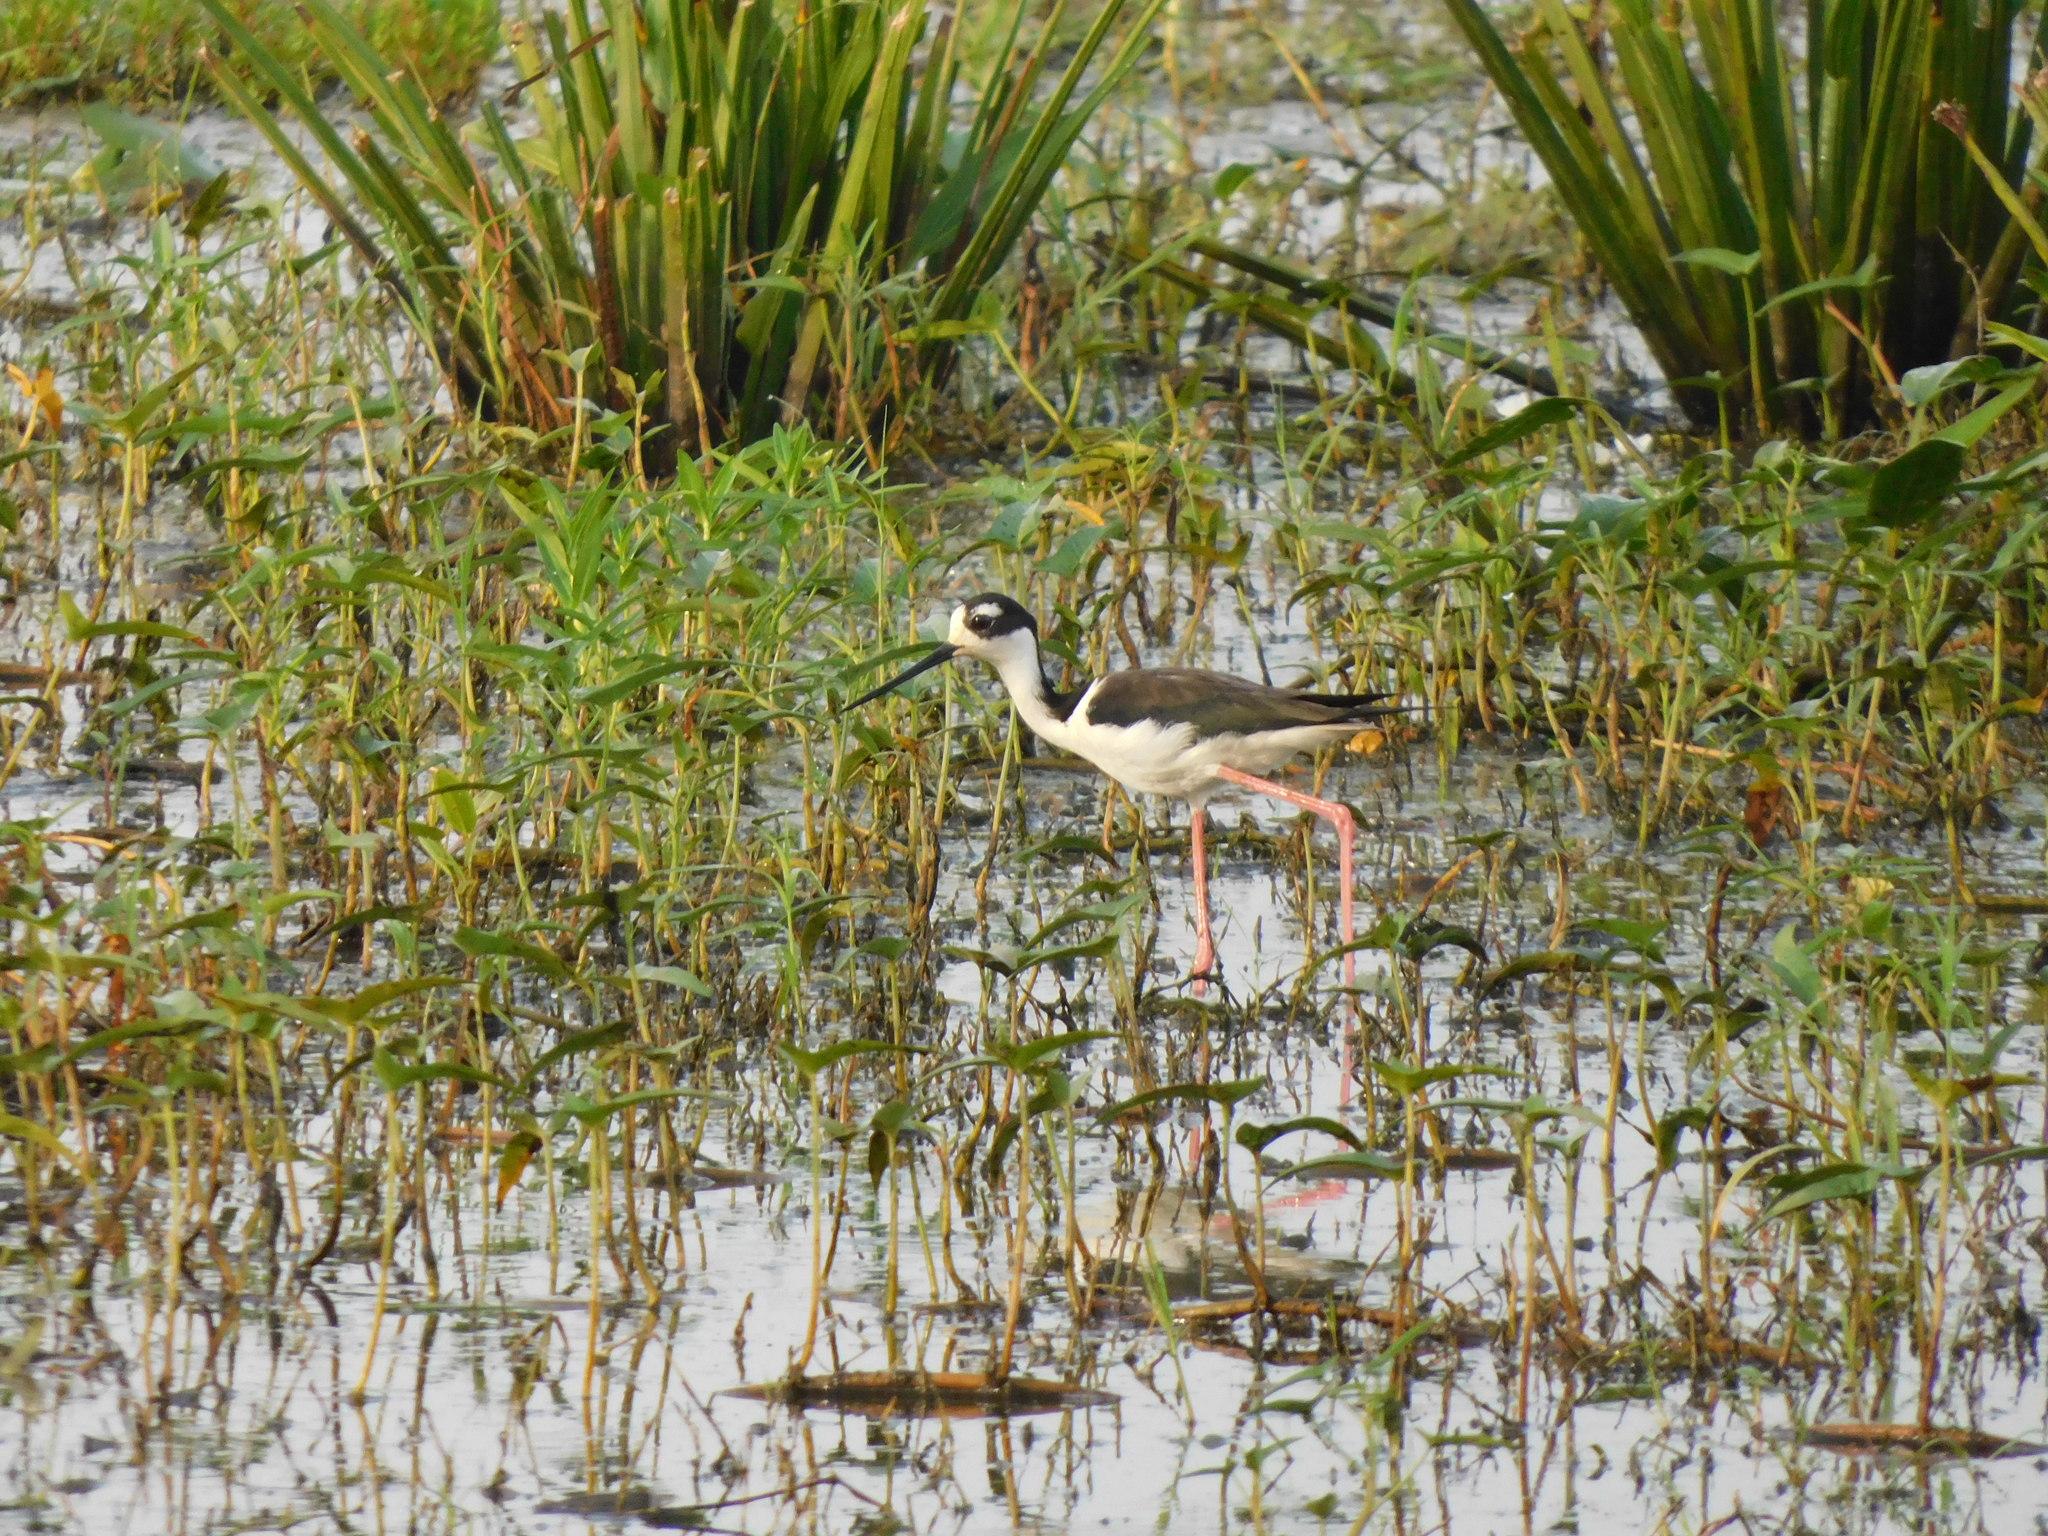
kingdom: Animalia
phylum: Chordata
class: Aves
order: Charadriiformes
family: Recurvirostridae
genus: Himantopus
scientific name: Himantopus mexicanus
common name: Black-necked stilt
